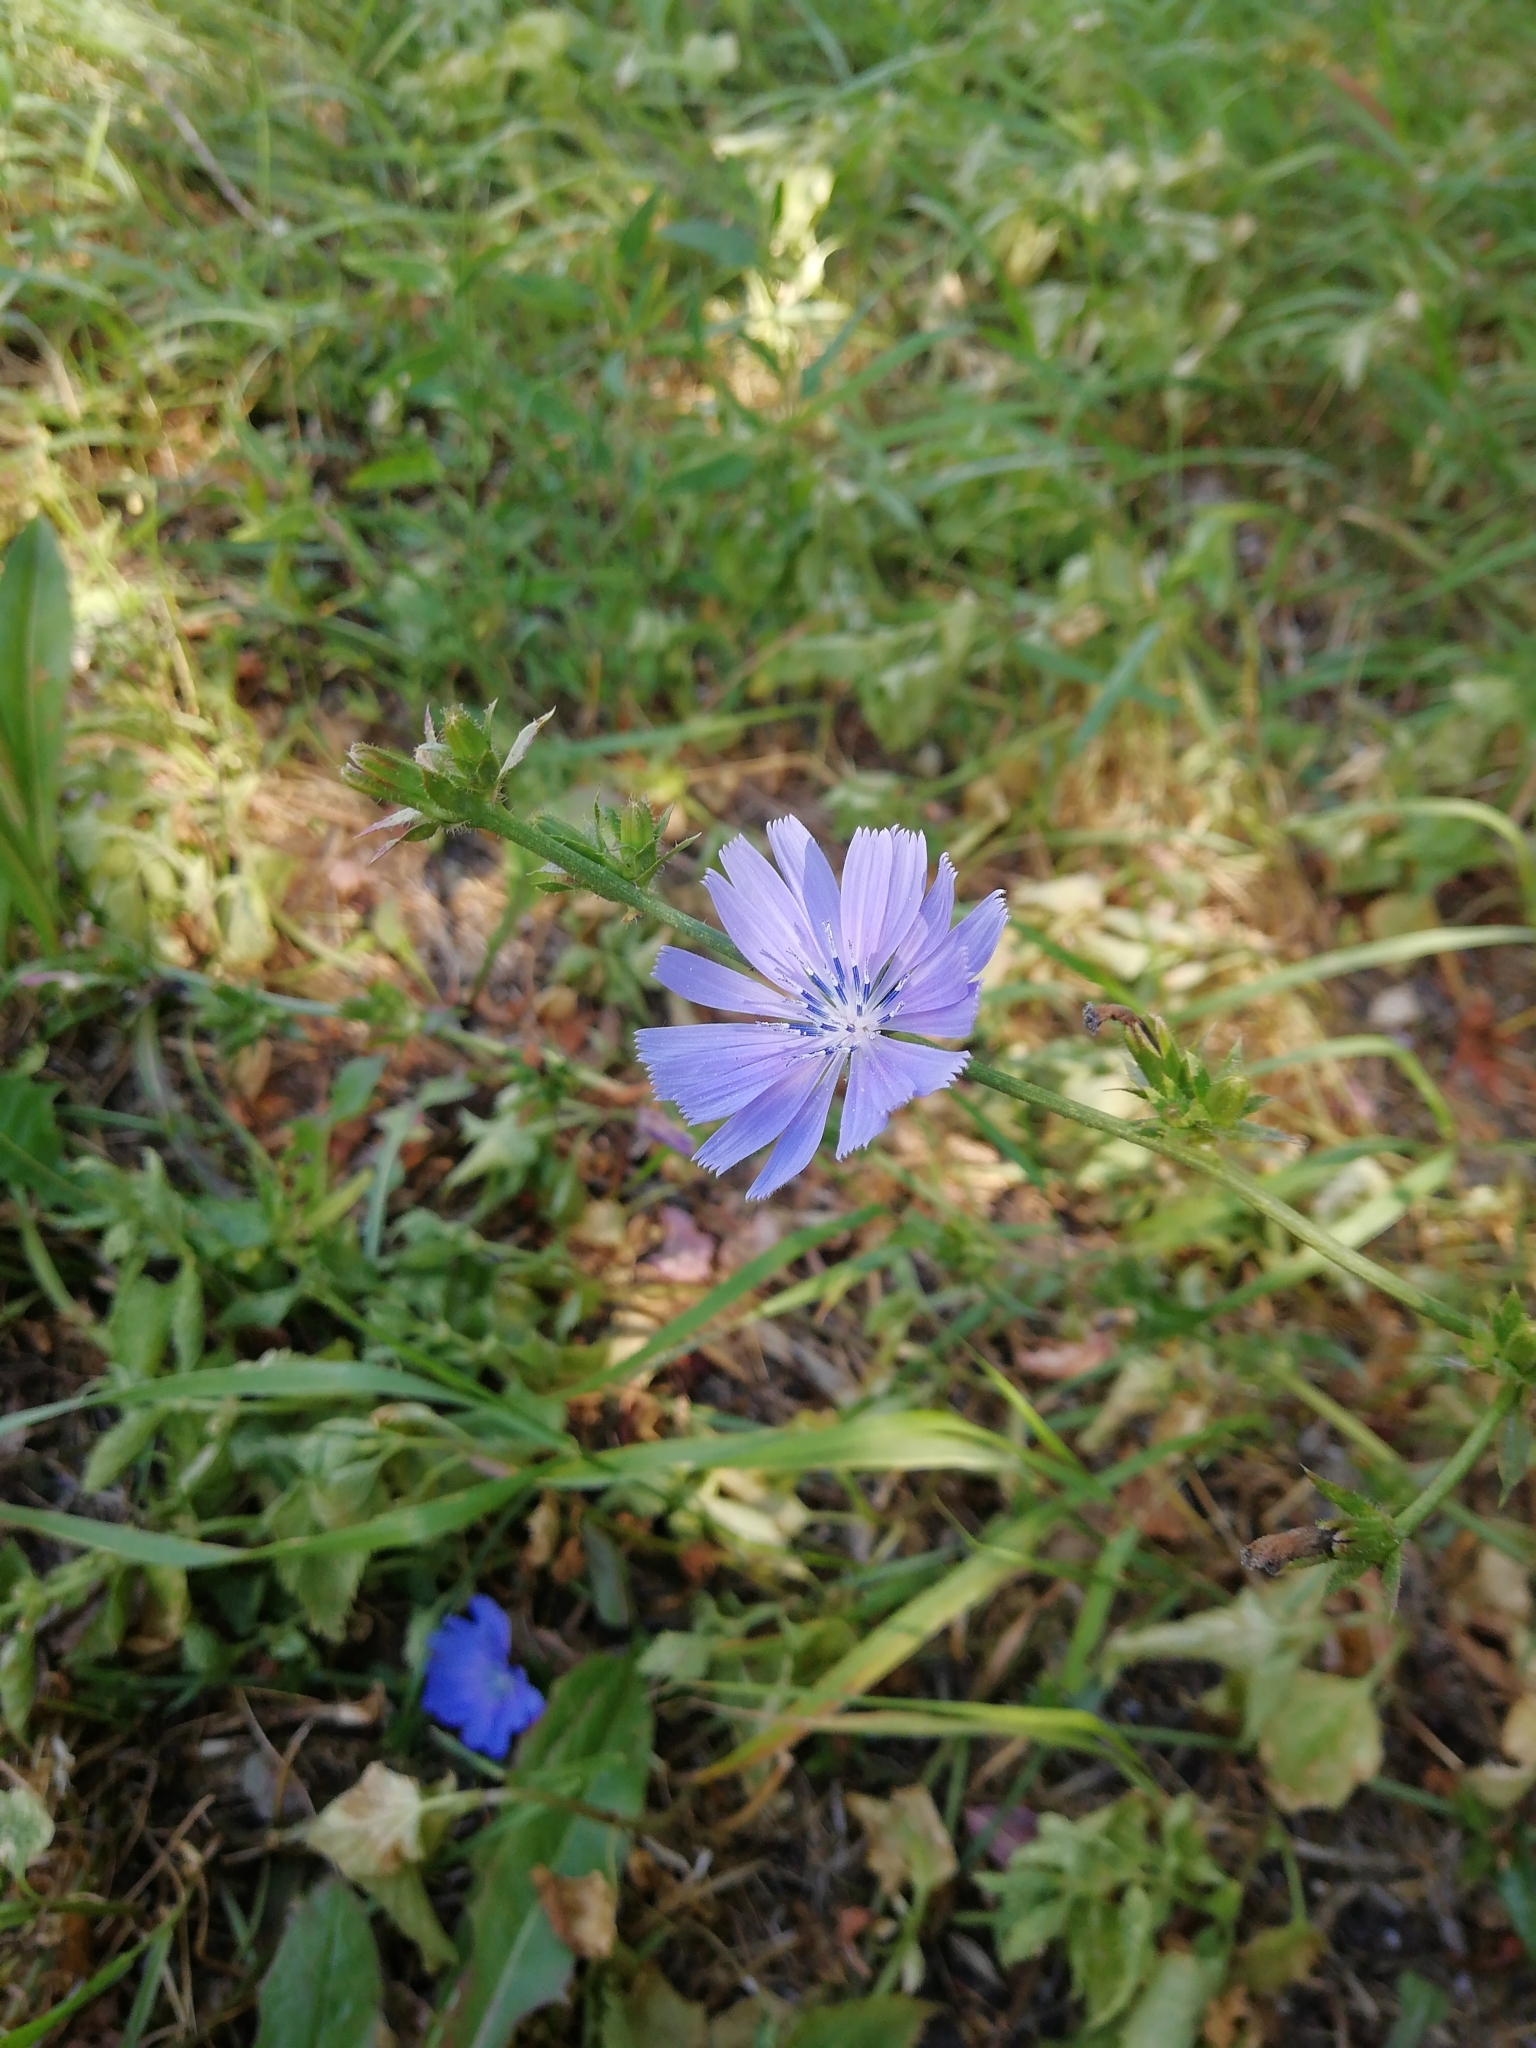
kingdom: Plantae
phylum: Tracheophyta
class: Magnoliopsida
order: Asterales
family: Asteraceae
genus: Cichorium
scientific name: Cichorium intybus
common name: Chicory
